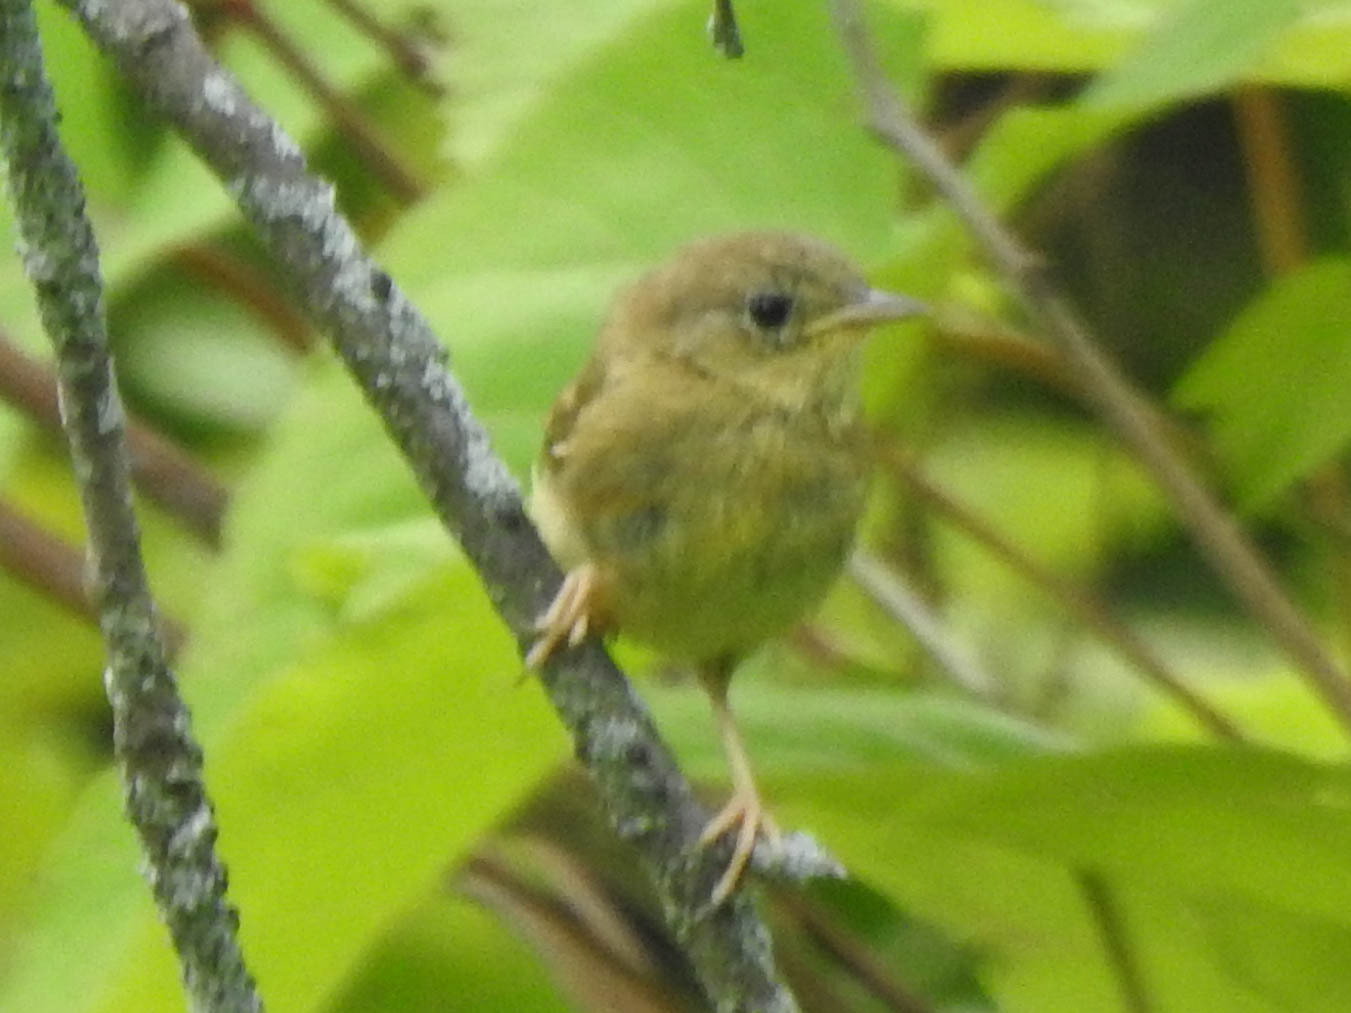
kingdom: Animalia
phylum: Chordata
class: Aves
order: Passeriformes
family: Parulidae
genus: Geothlypis
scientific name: Geothlypis trichas
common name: Common yellowthroat
